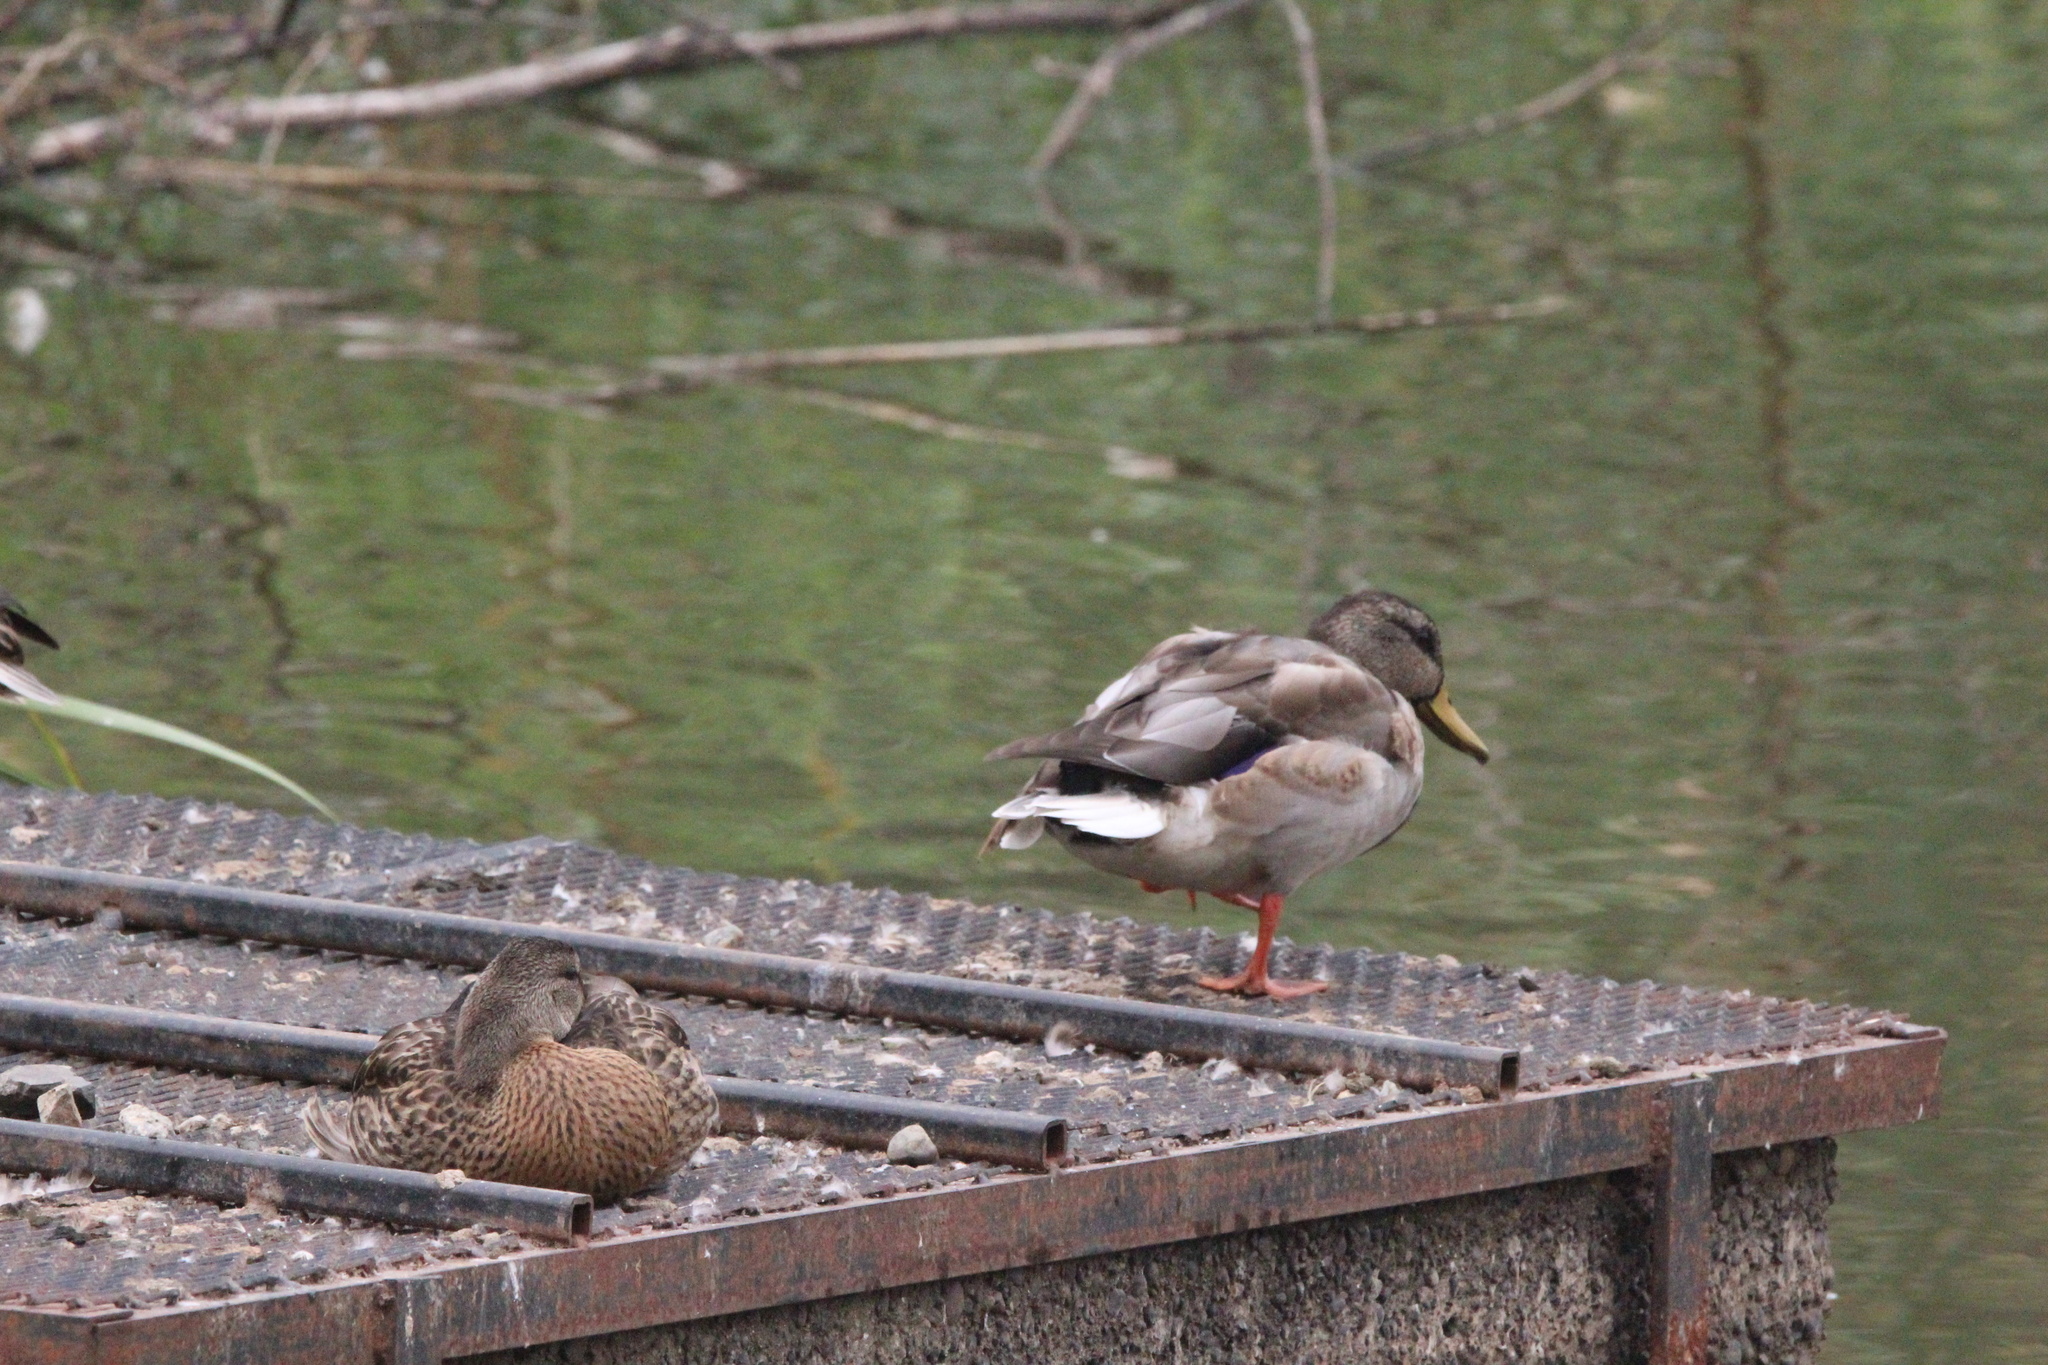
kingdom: Animalia
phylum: Chordata
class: Aves
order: Anseriformes
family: Anatidae
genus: Anas
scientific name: Anas platyrhynchos
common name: Mallard
